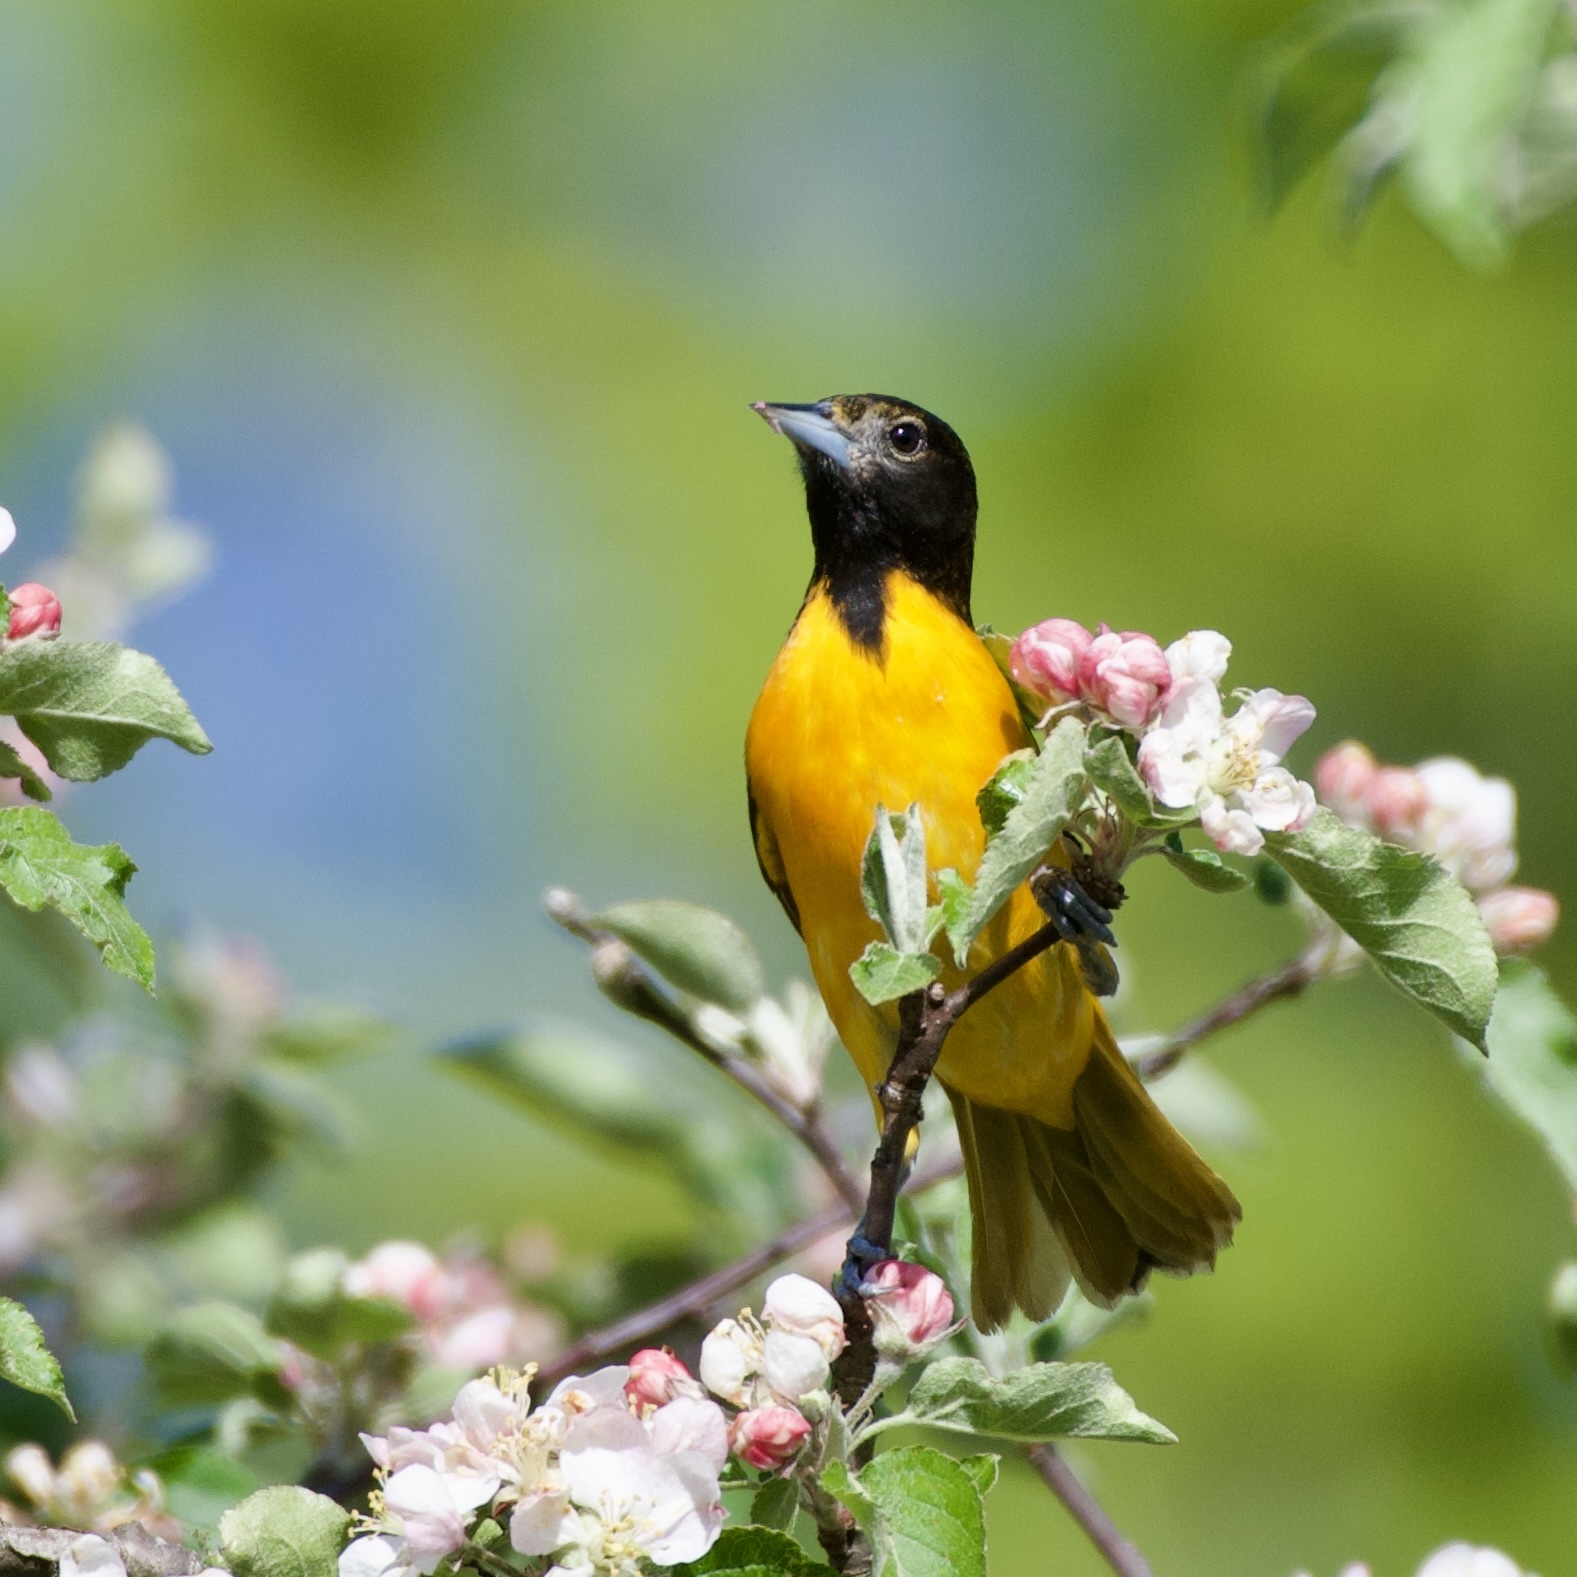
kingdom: Animalia
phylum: Chordata
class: Aves
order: Passeriformes
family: Icteridae
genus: Icterus
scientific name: Icterus galbula
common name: Baltimore oriole
